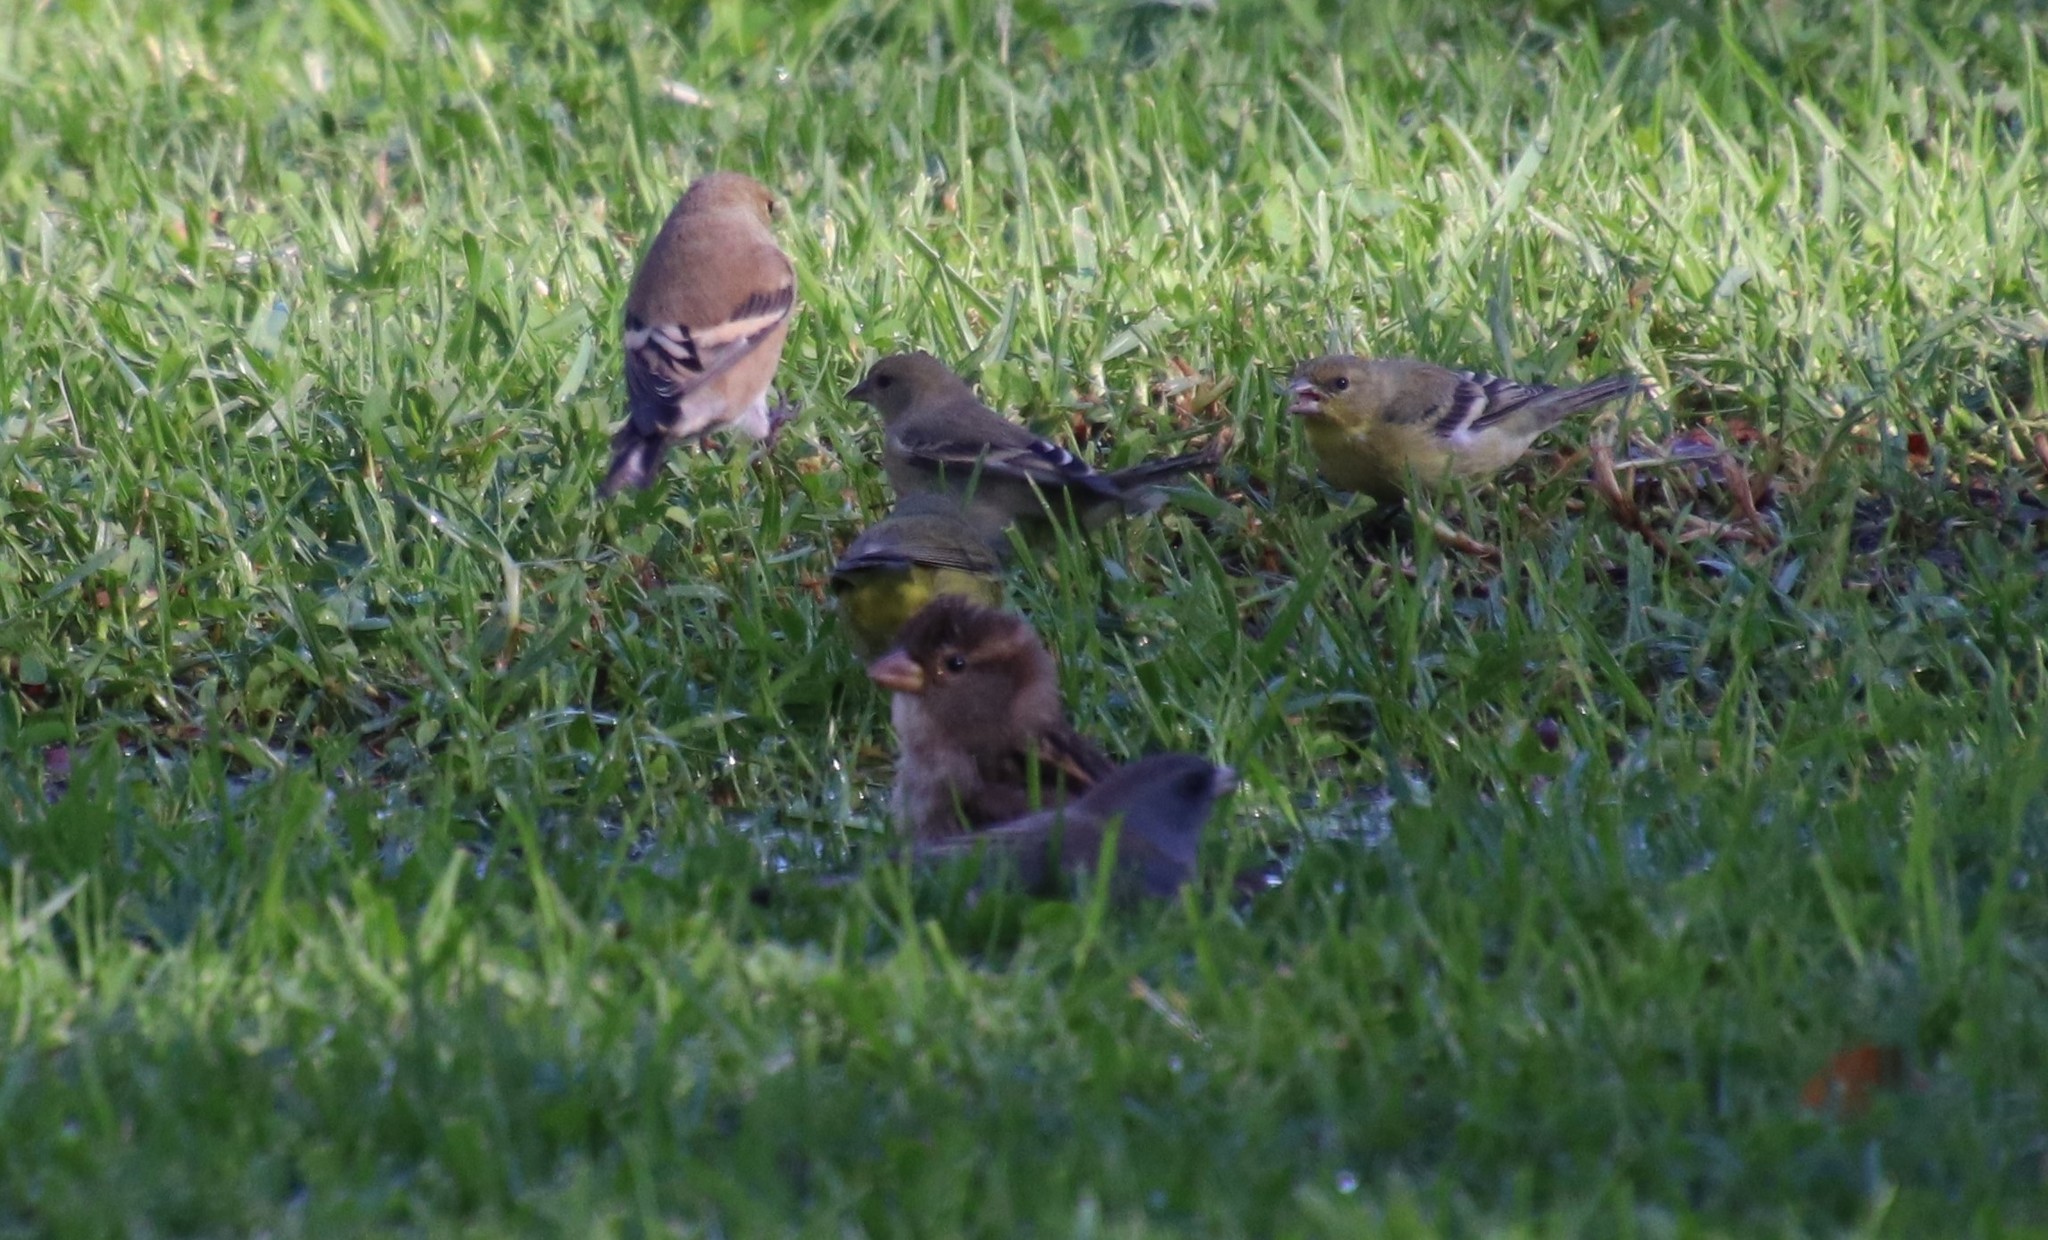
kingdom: Animalia
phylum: Chordata
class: Aves
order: Passeriformes
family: Passeridae
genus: Passer
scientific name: Passer domesticus
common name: House sparrow
